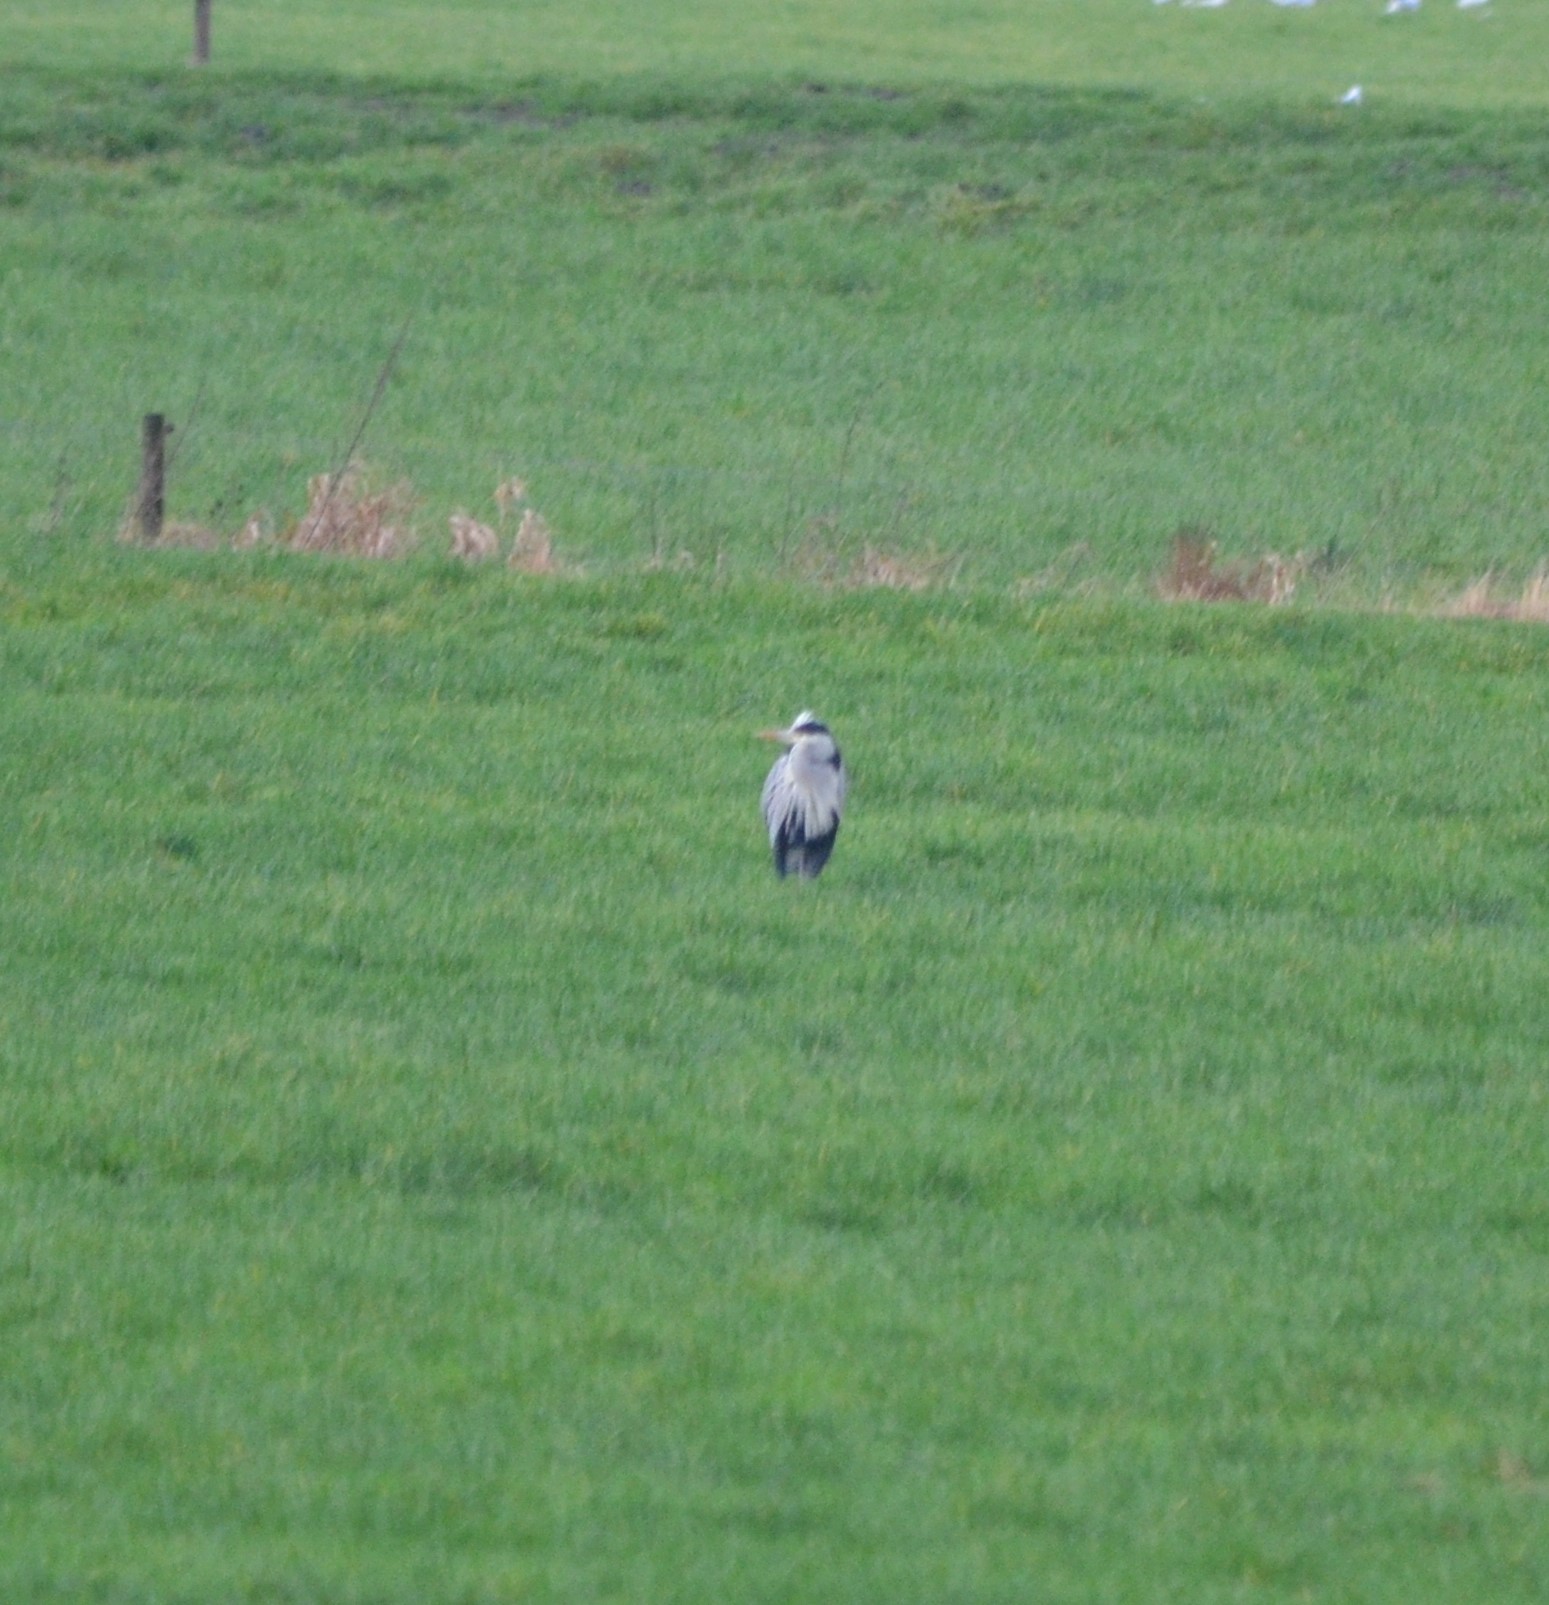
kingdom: Animalia
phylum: Chordata
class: Aves
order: Pelecaniformes
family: Ardeidae
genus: Ardea
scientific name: Ardea cinerea
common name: Grey heron
